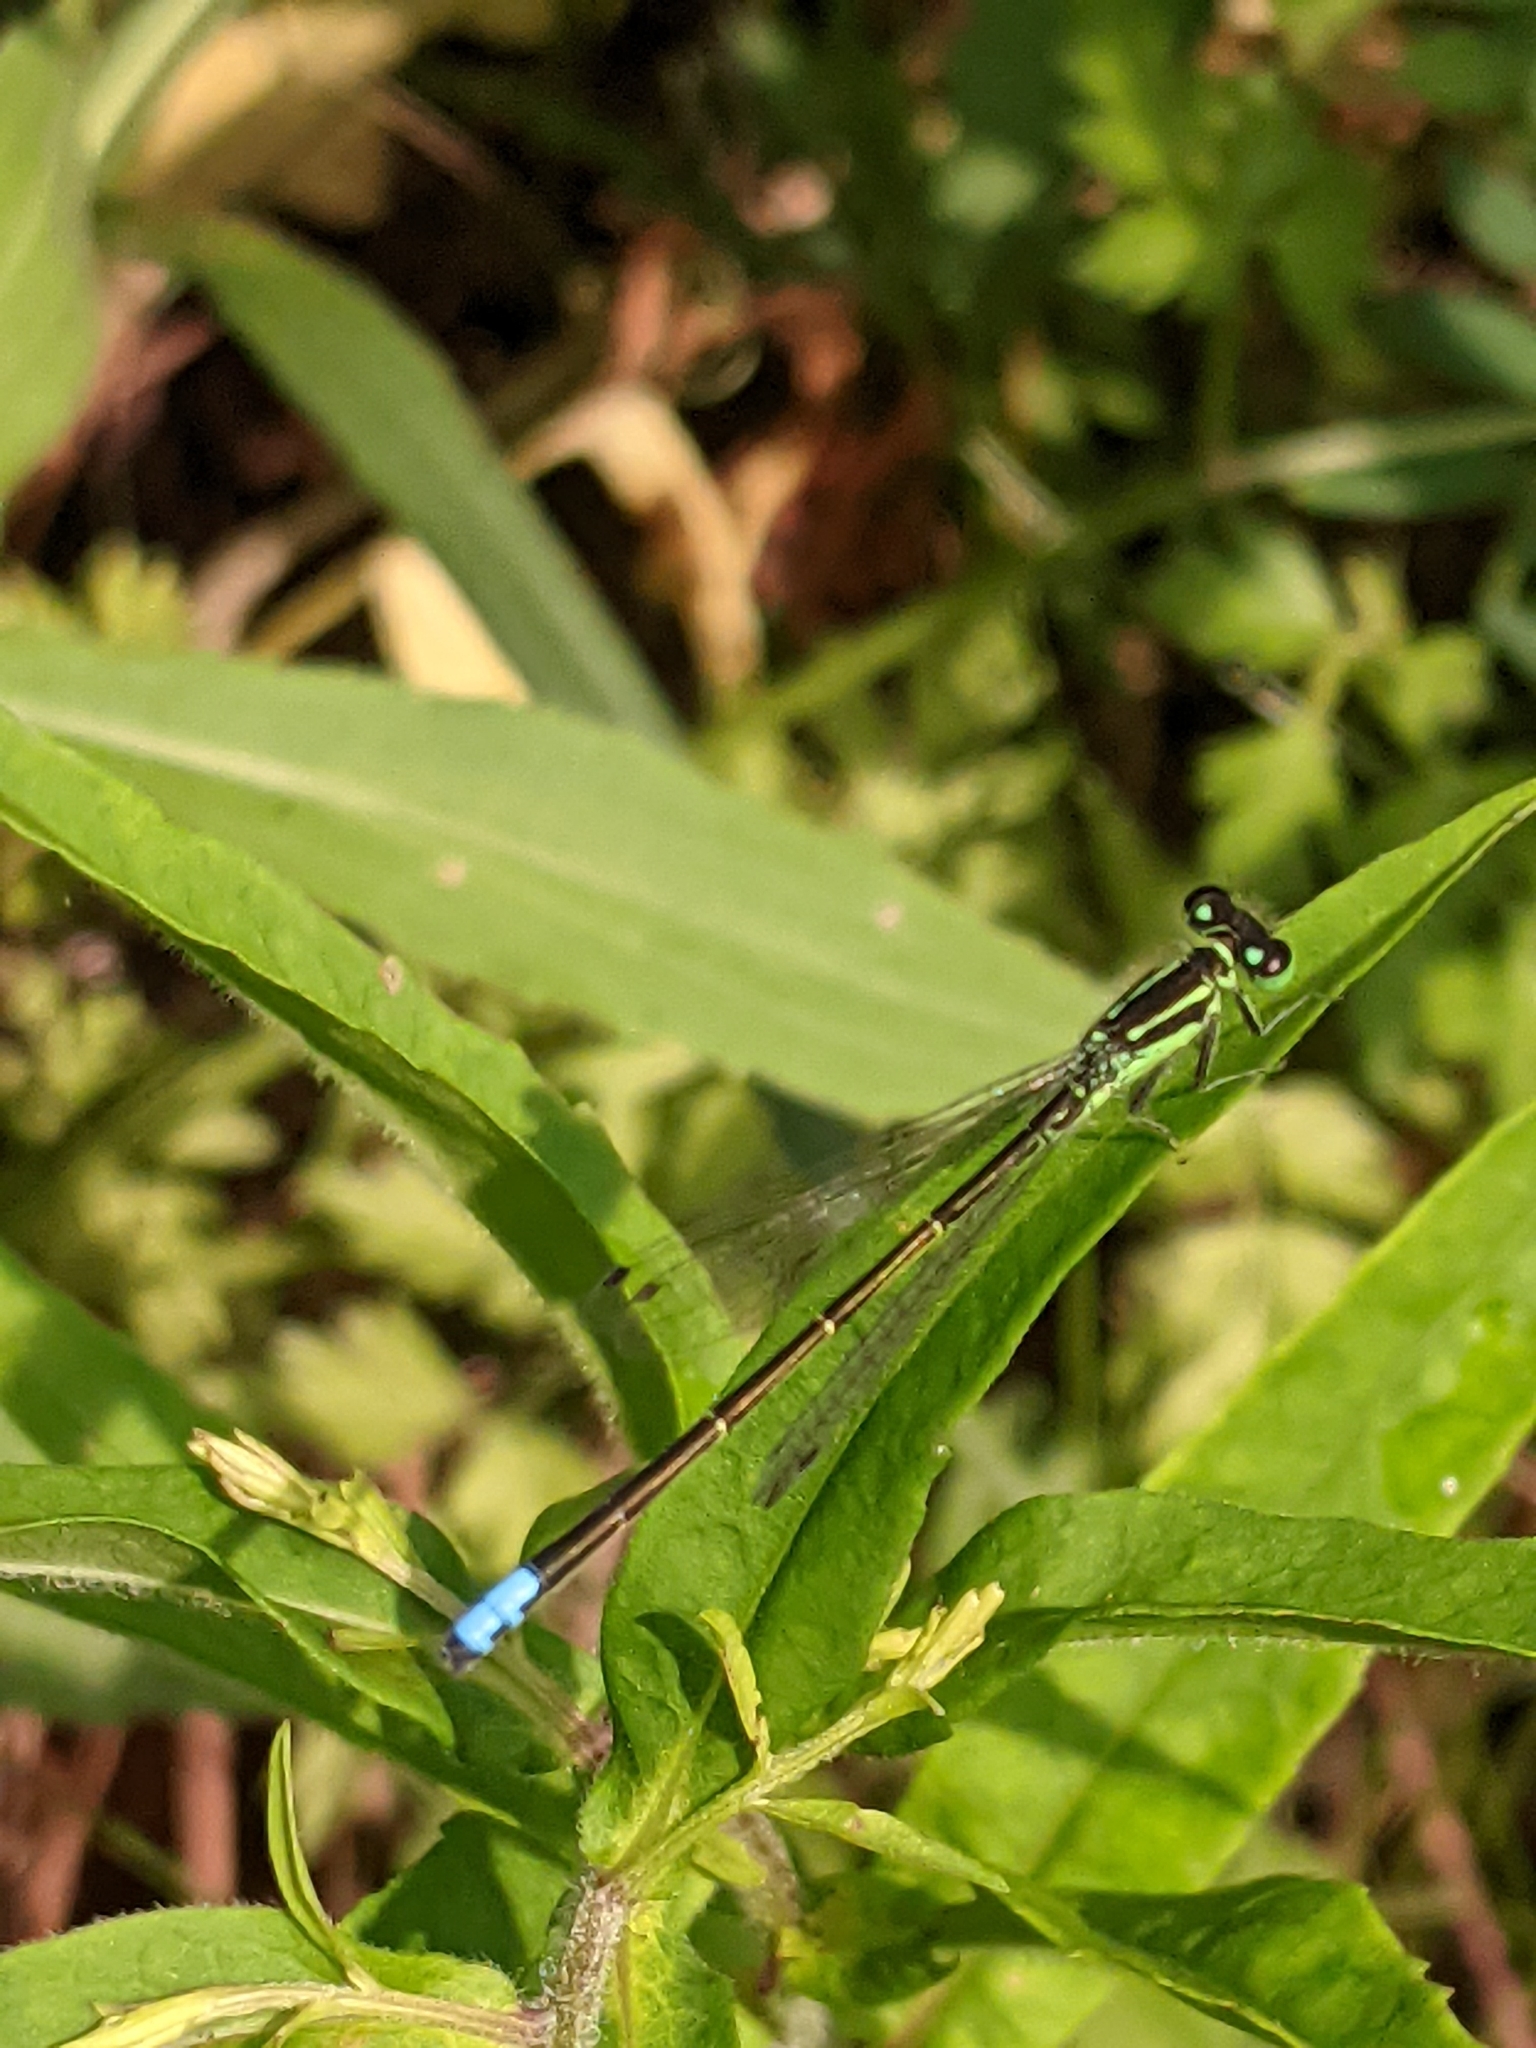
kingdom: Animalia
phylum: Arthropoda
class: Insecta
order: Odonata
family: Coenagrionidae
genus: Ischnura
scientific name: Ischnura verticalis
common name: Eastern forktail
